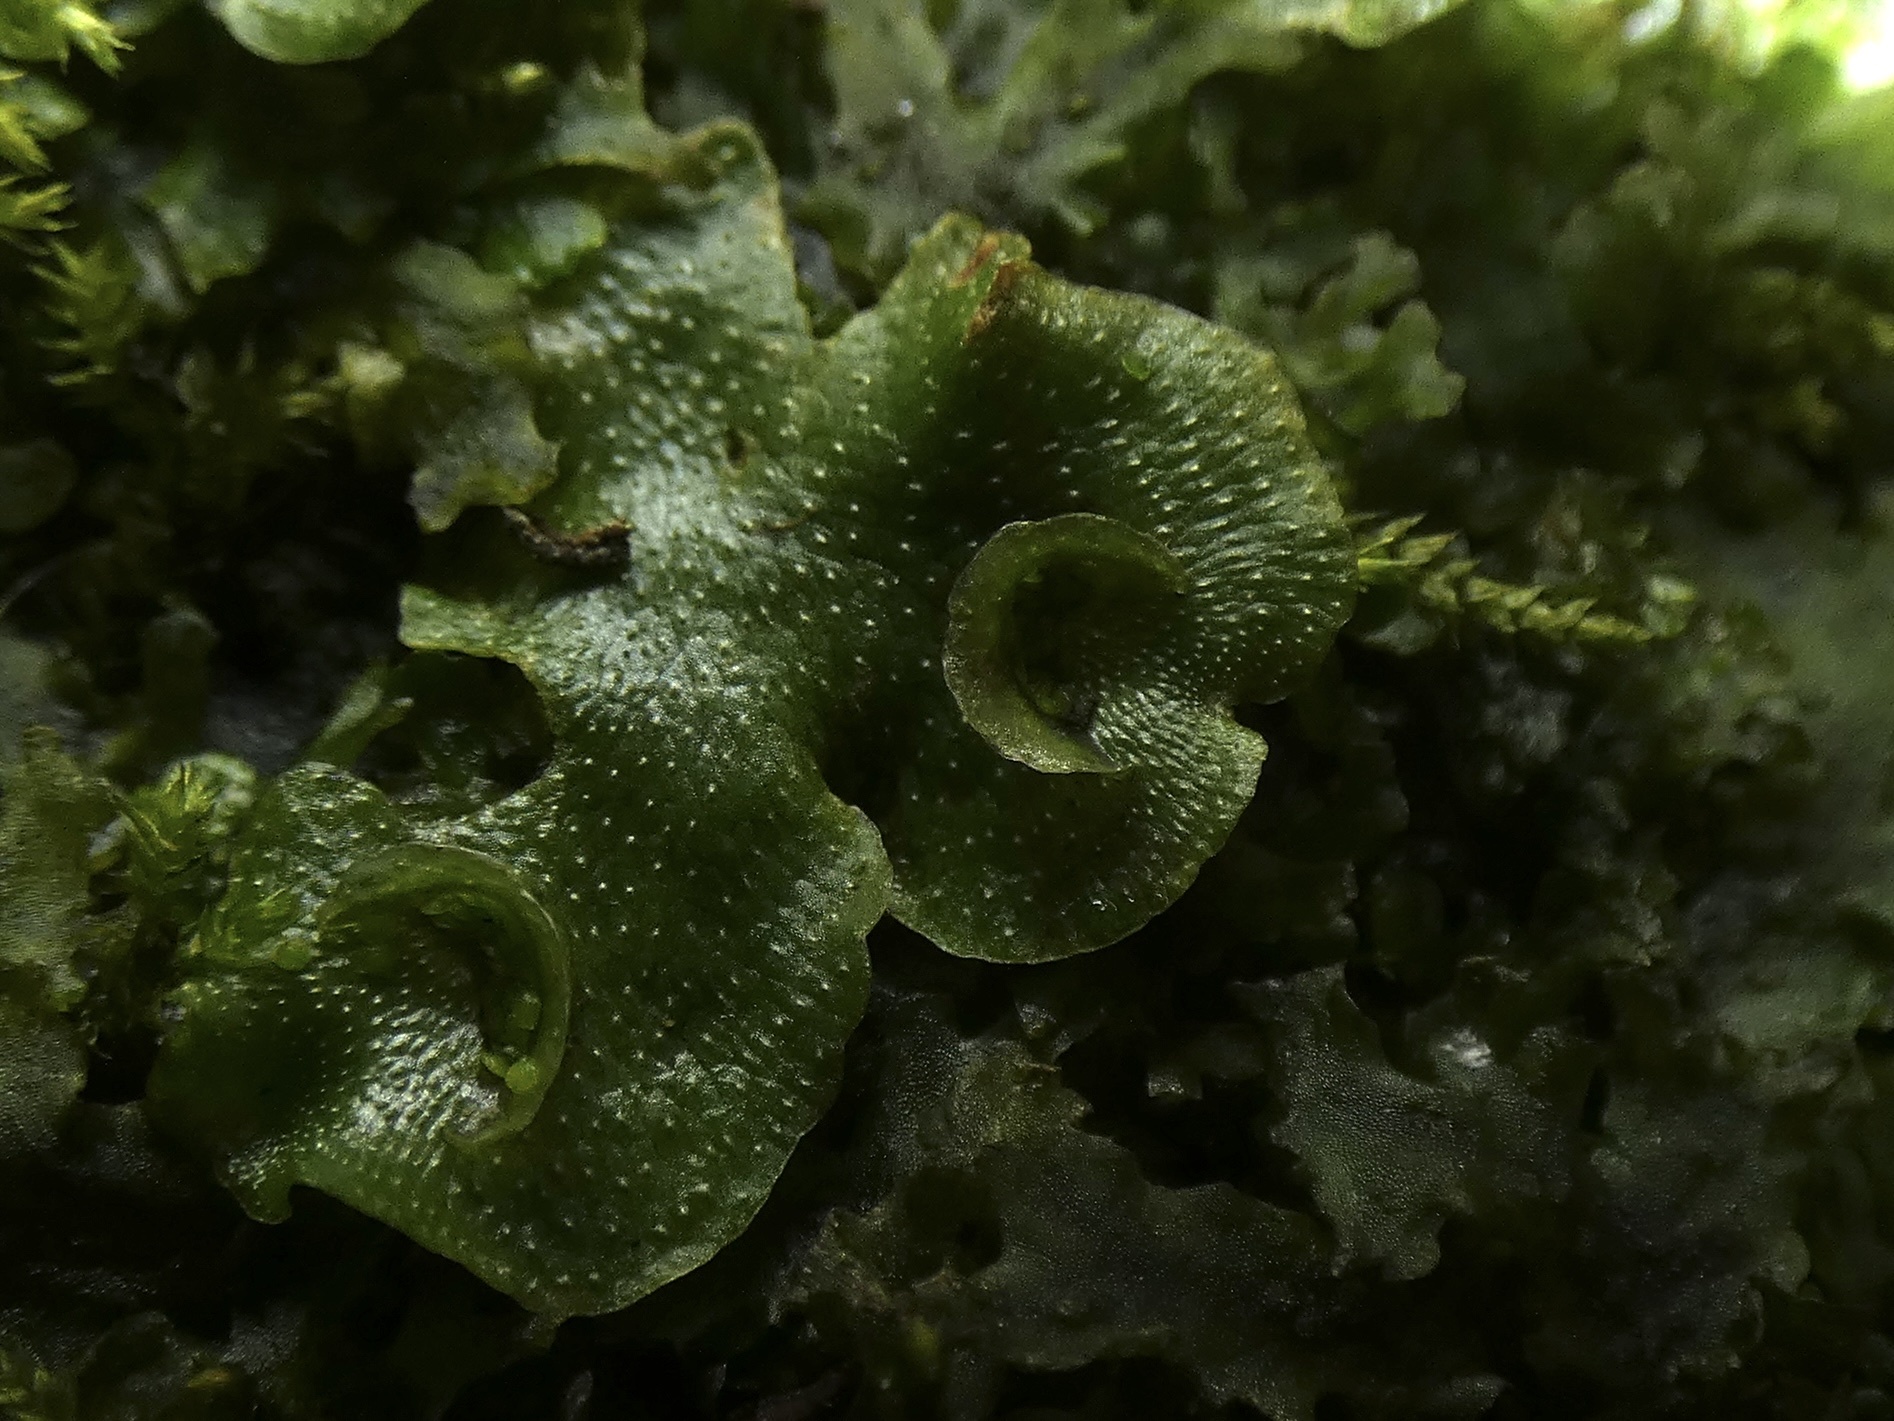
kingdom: Plantae
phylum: Marchantiophyta
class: Marchantiopsida
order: Lunulariales
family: Lunulariaceae
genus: Lunularia
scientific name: Lunularia cruciata
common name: Crescent-cup liverwort
